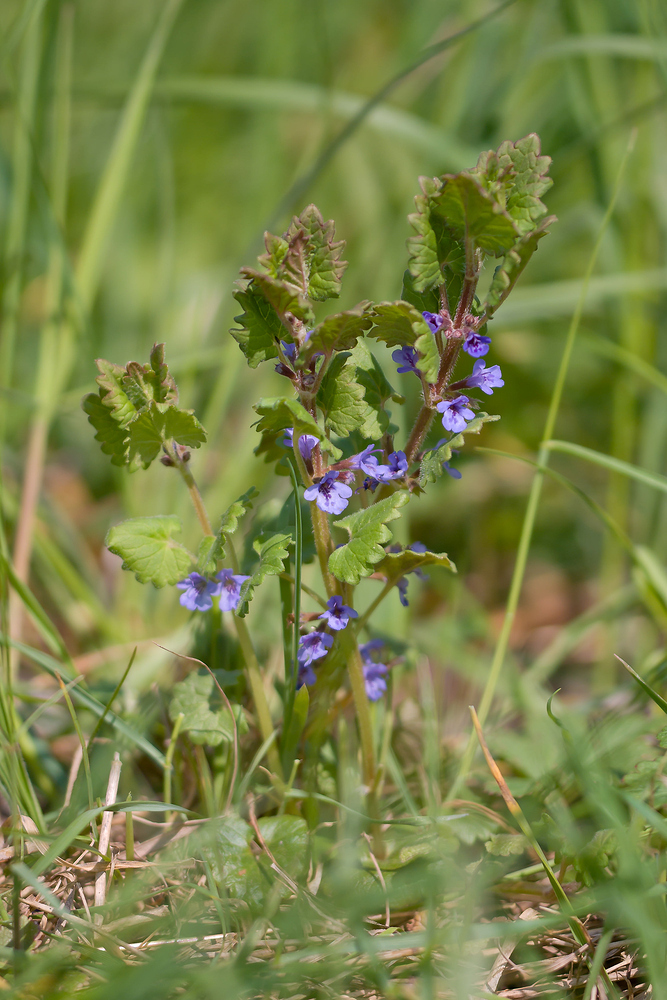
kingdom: Plantae
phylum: Tracheophyta
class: Magnoliopsida
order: Lamiales
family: Lamiaceae
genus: Glechoma
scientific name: Glechoma hederacea
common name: Ground ivy
